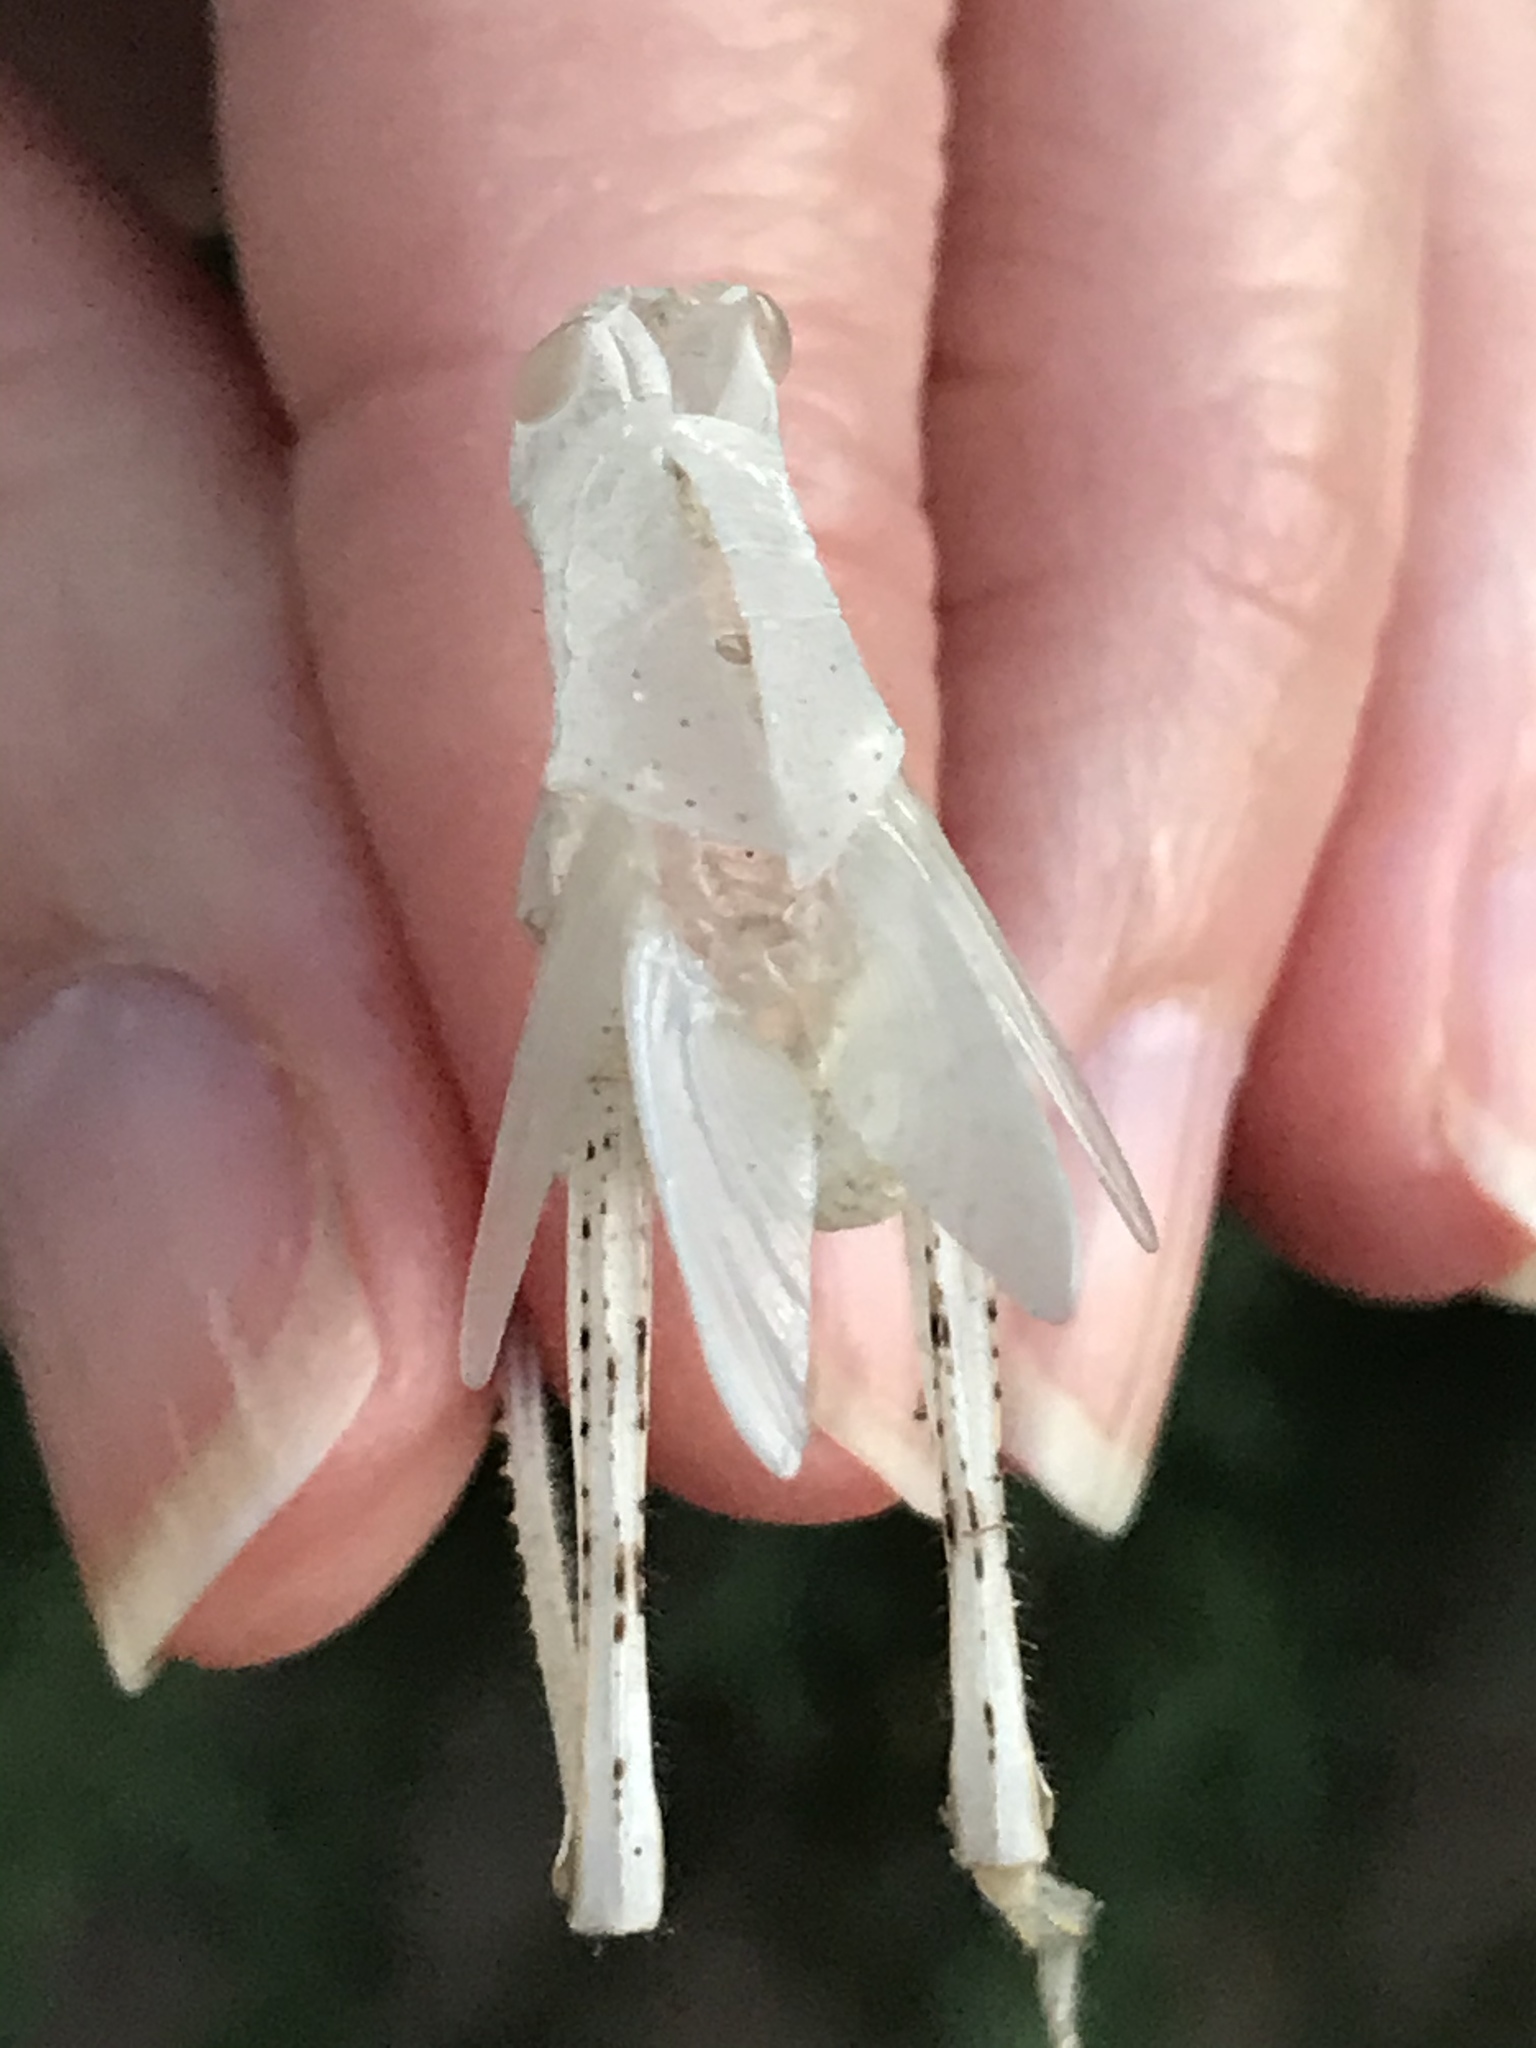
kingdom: Animalia
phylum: Arthropoda
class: Insecta
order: Orthoptera
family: Acrididae
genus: Schistocerca
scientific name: Schistocerca nitens
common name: Vagrant grasshopper
